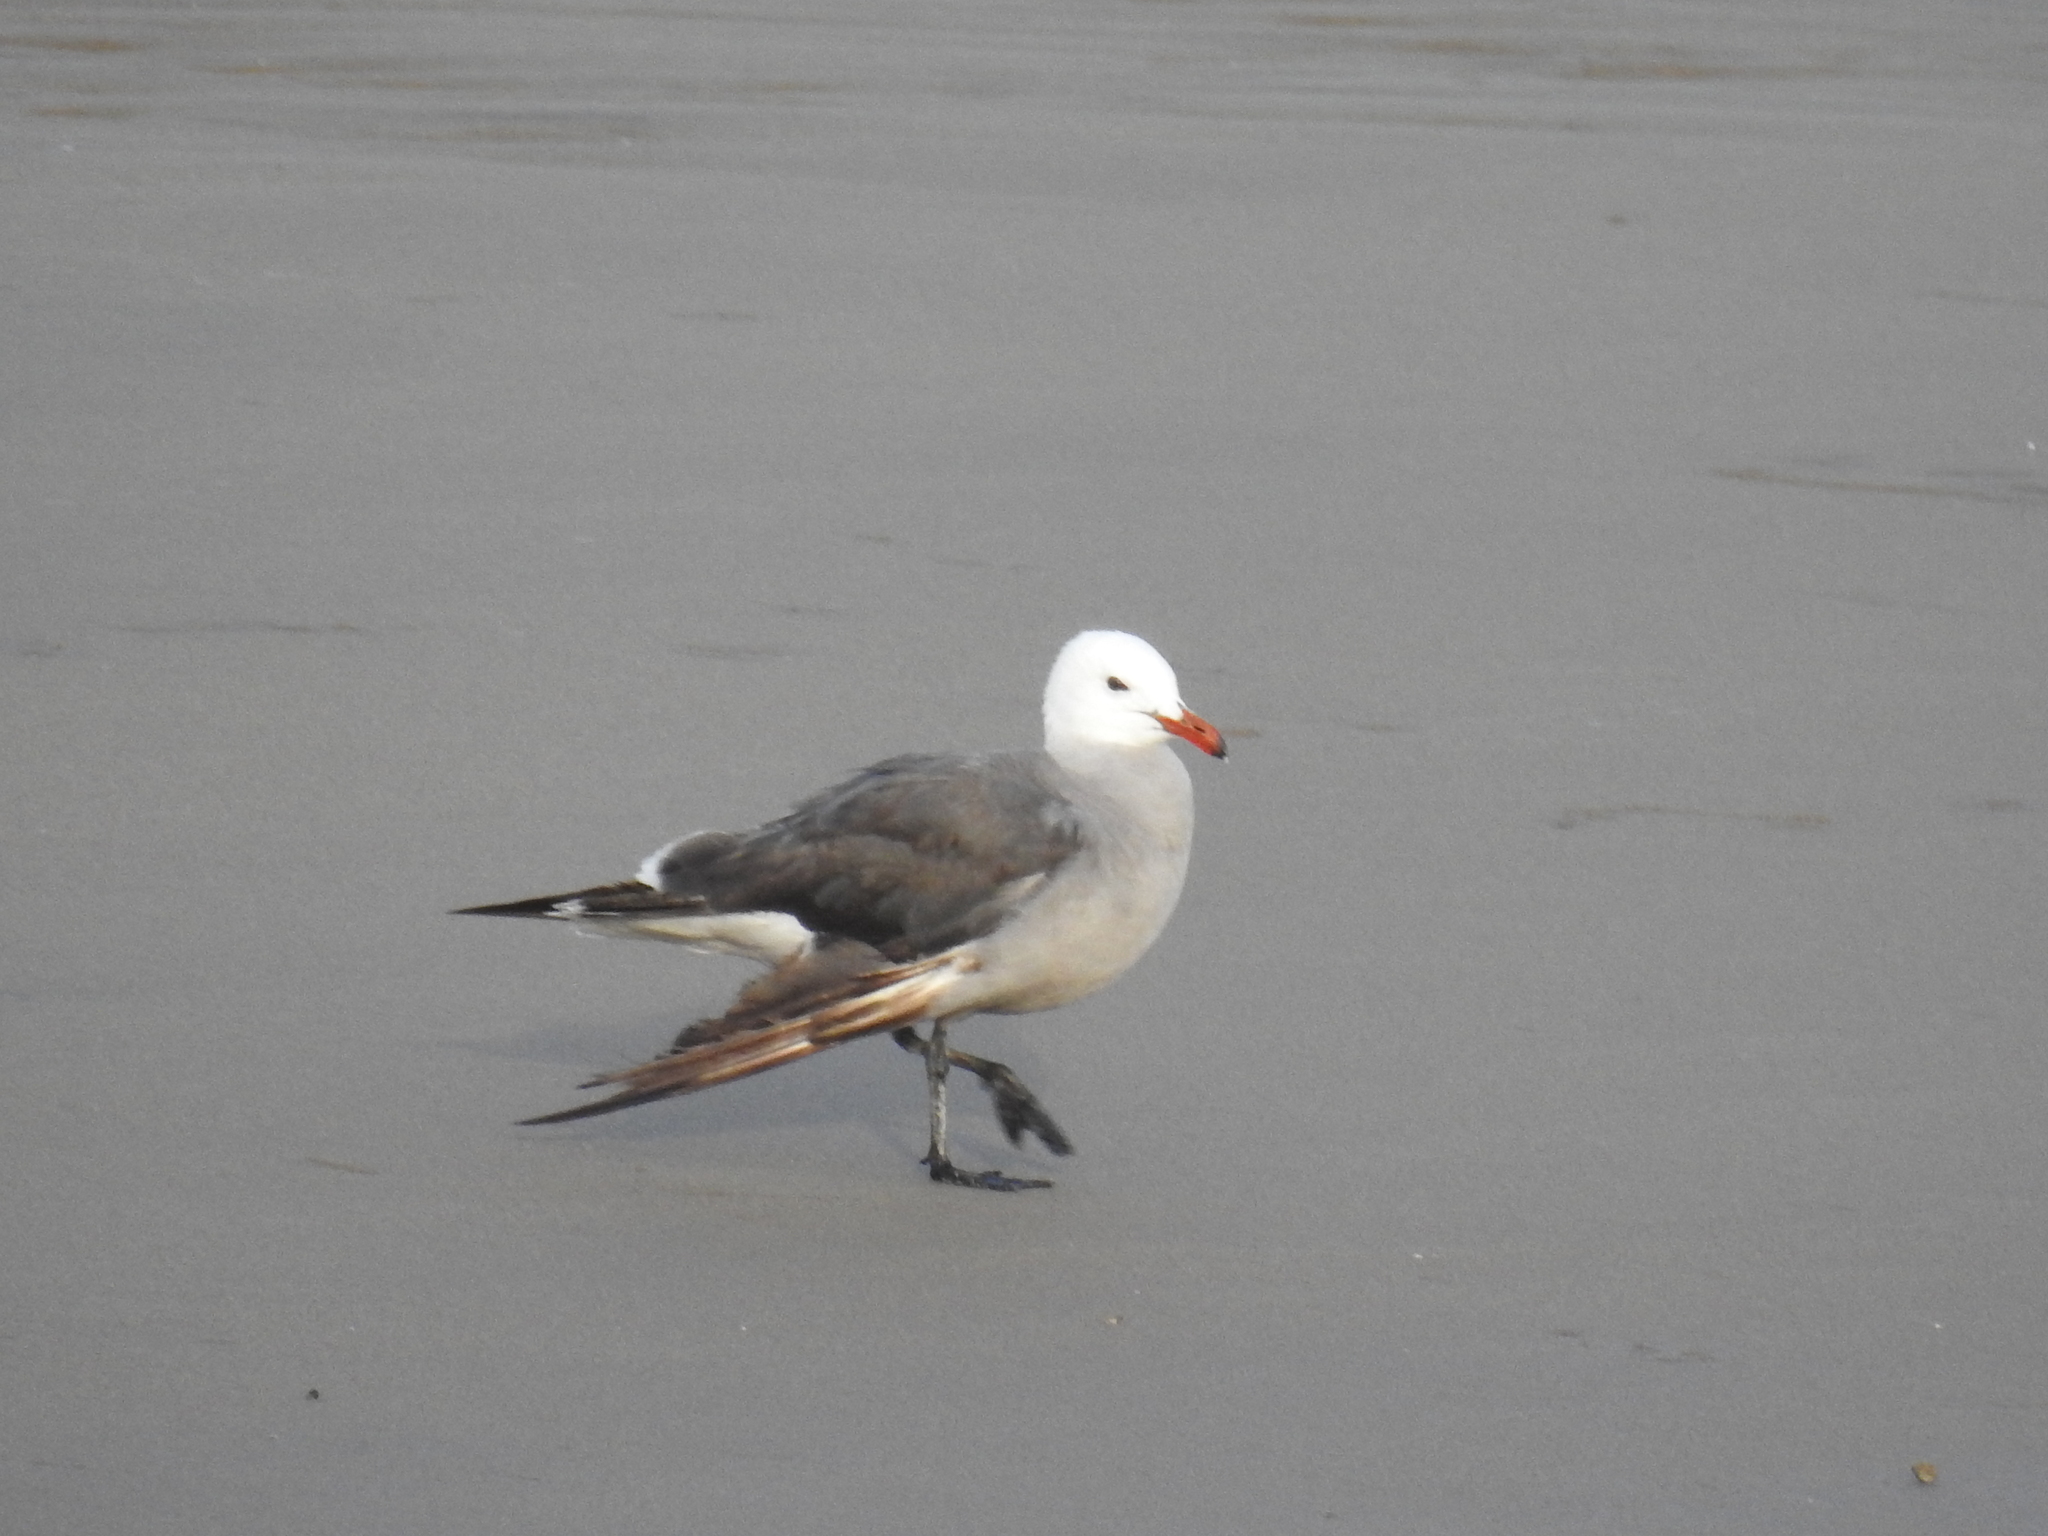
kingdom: Animalia
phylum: Chordata
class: Aves
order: Charadriiformes
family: Laridae
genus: Larus
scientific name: Larus heermanni
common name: Heermann's gull
